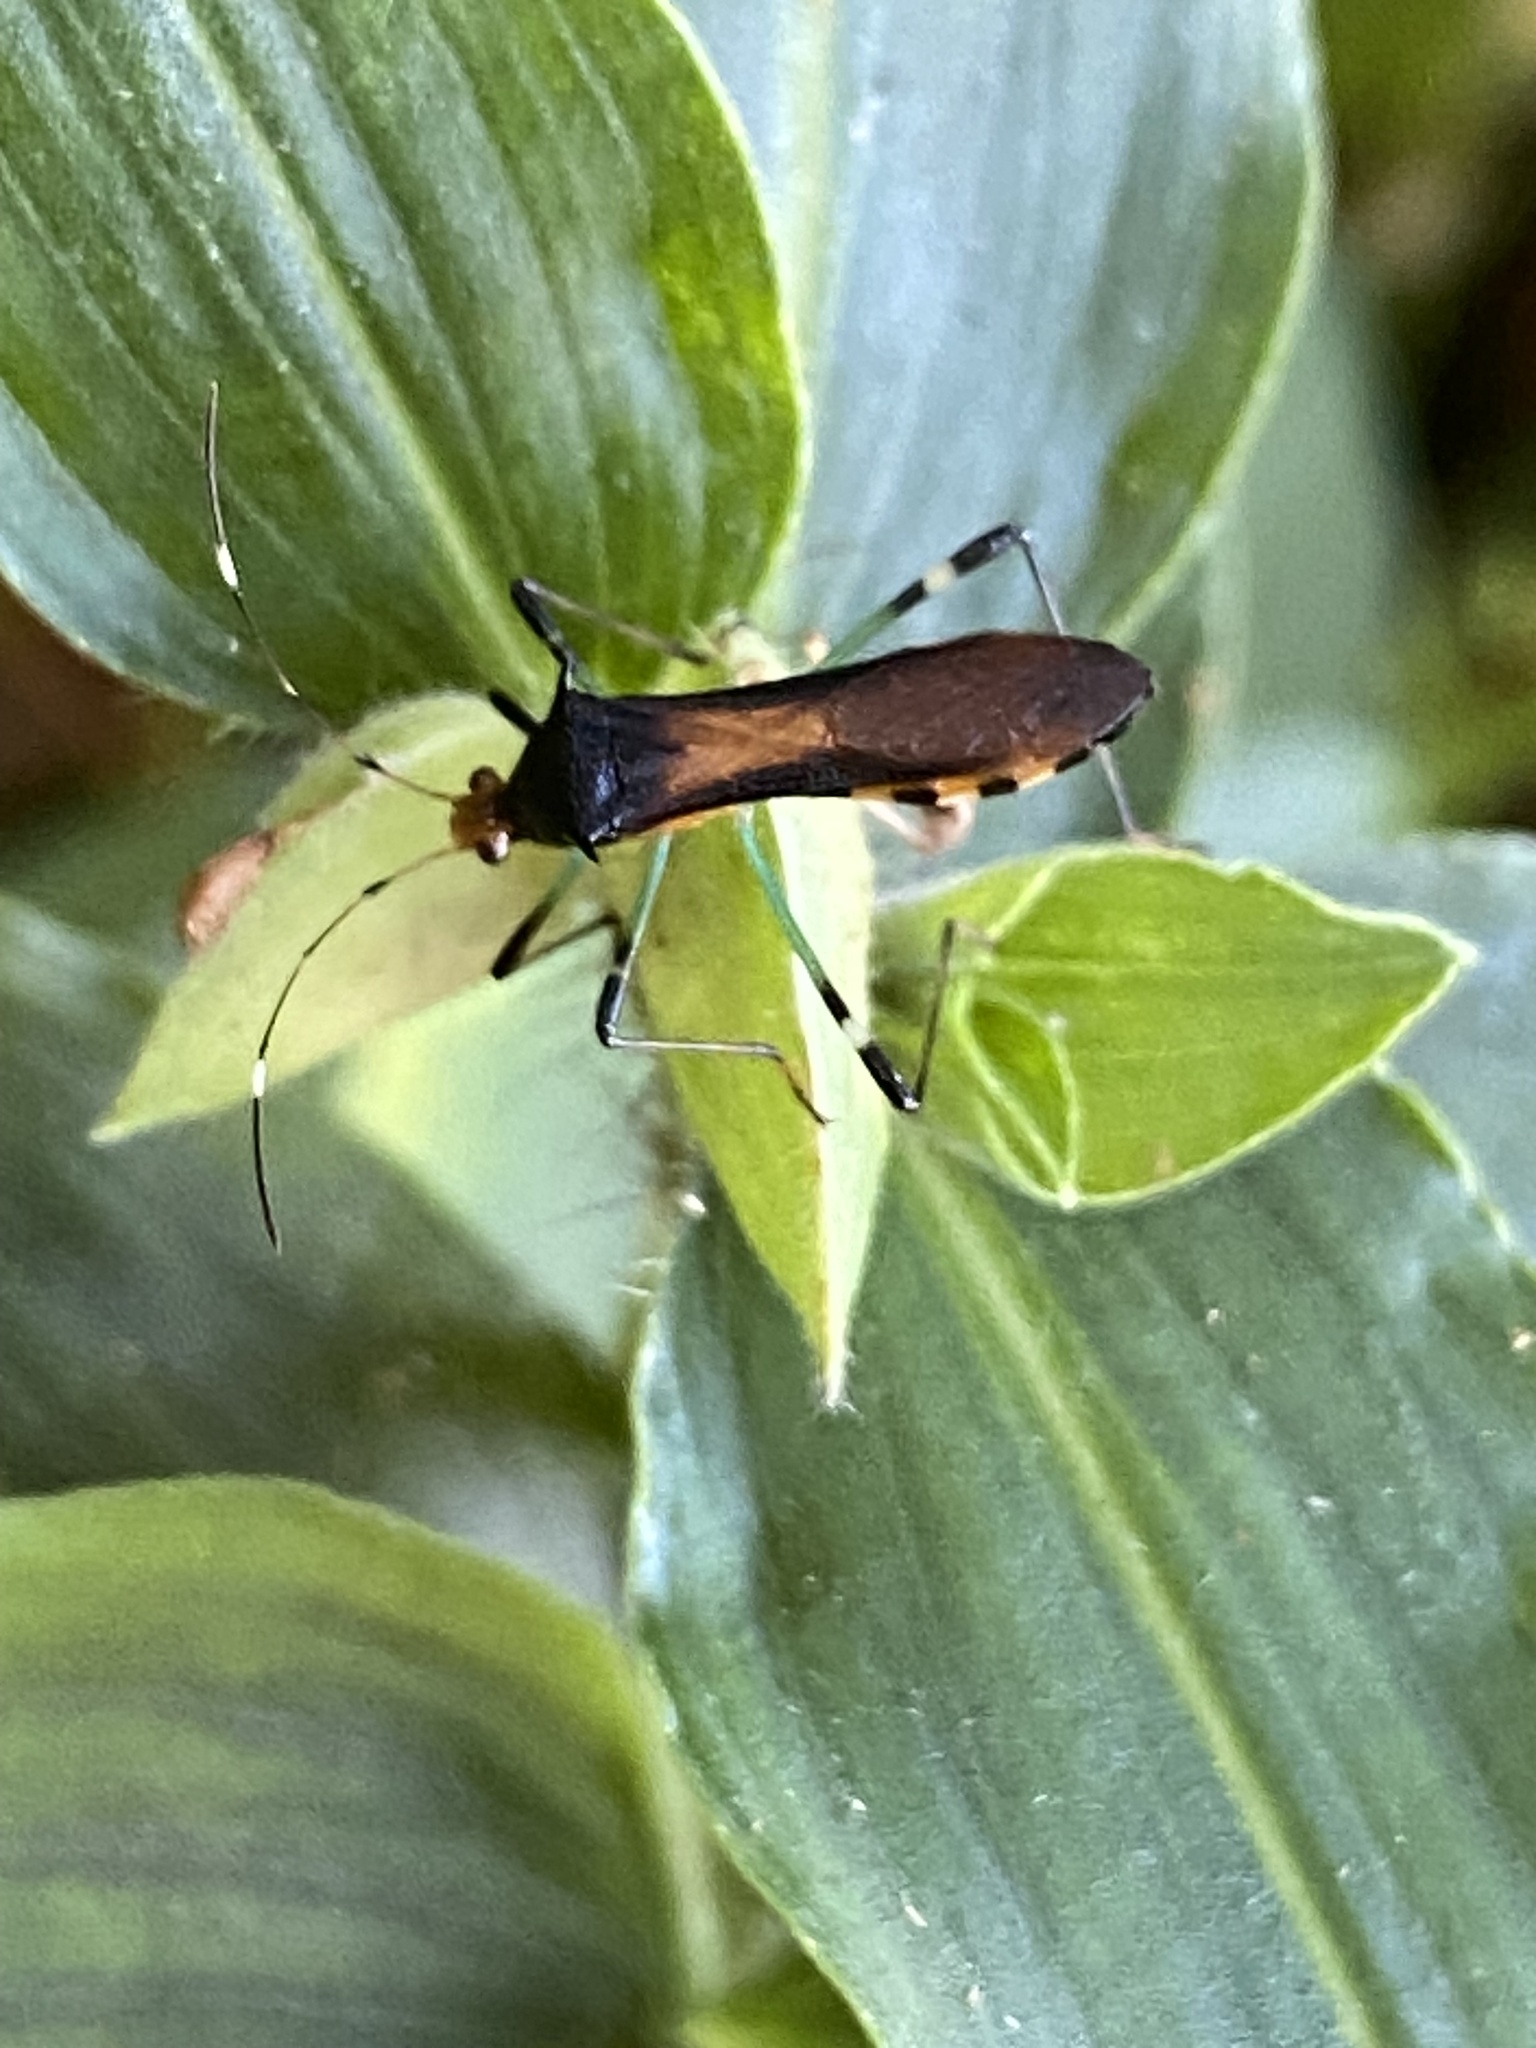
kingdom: Animalia
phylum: Arthropoda
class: Insecta
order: Hemiptera
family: Alydidae
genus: Noliphus
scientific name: Noliphus erythrocephalus
